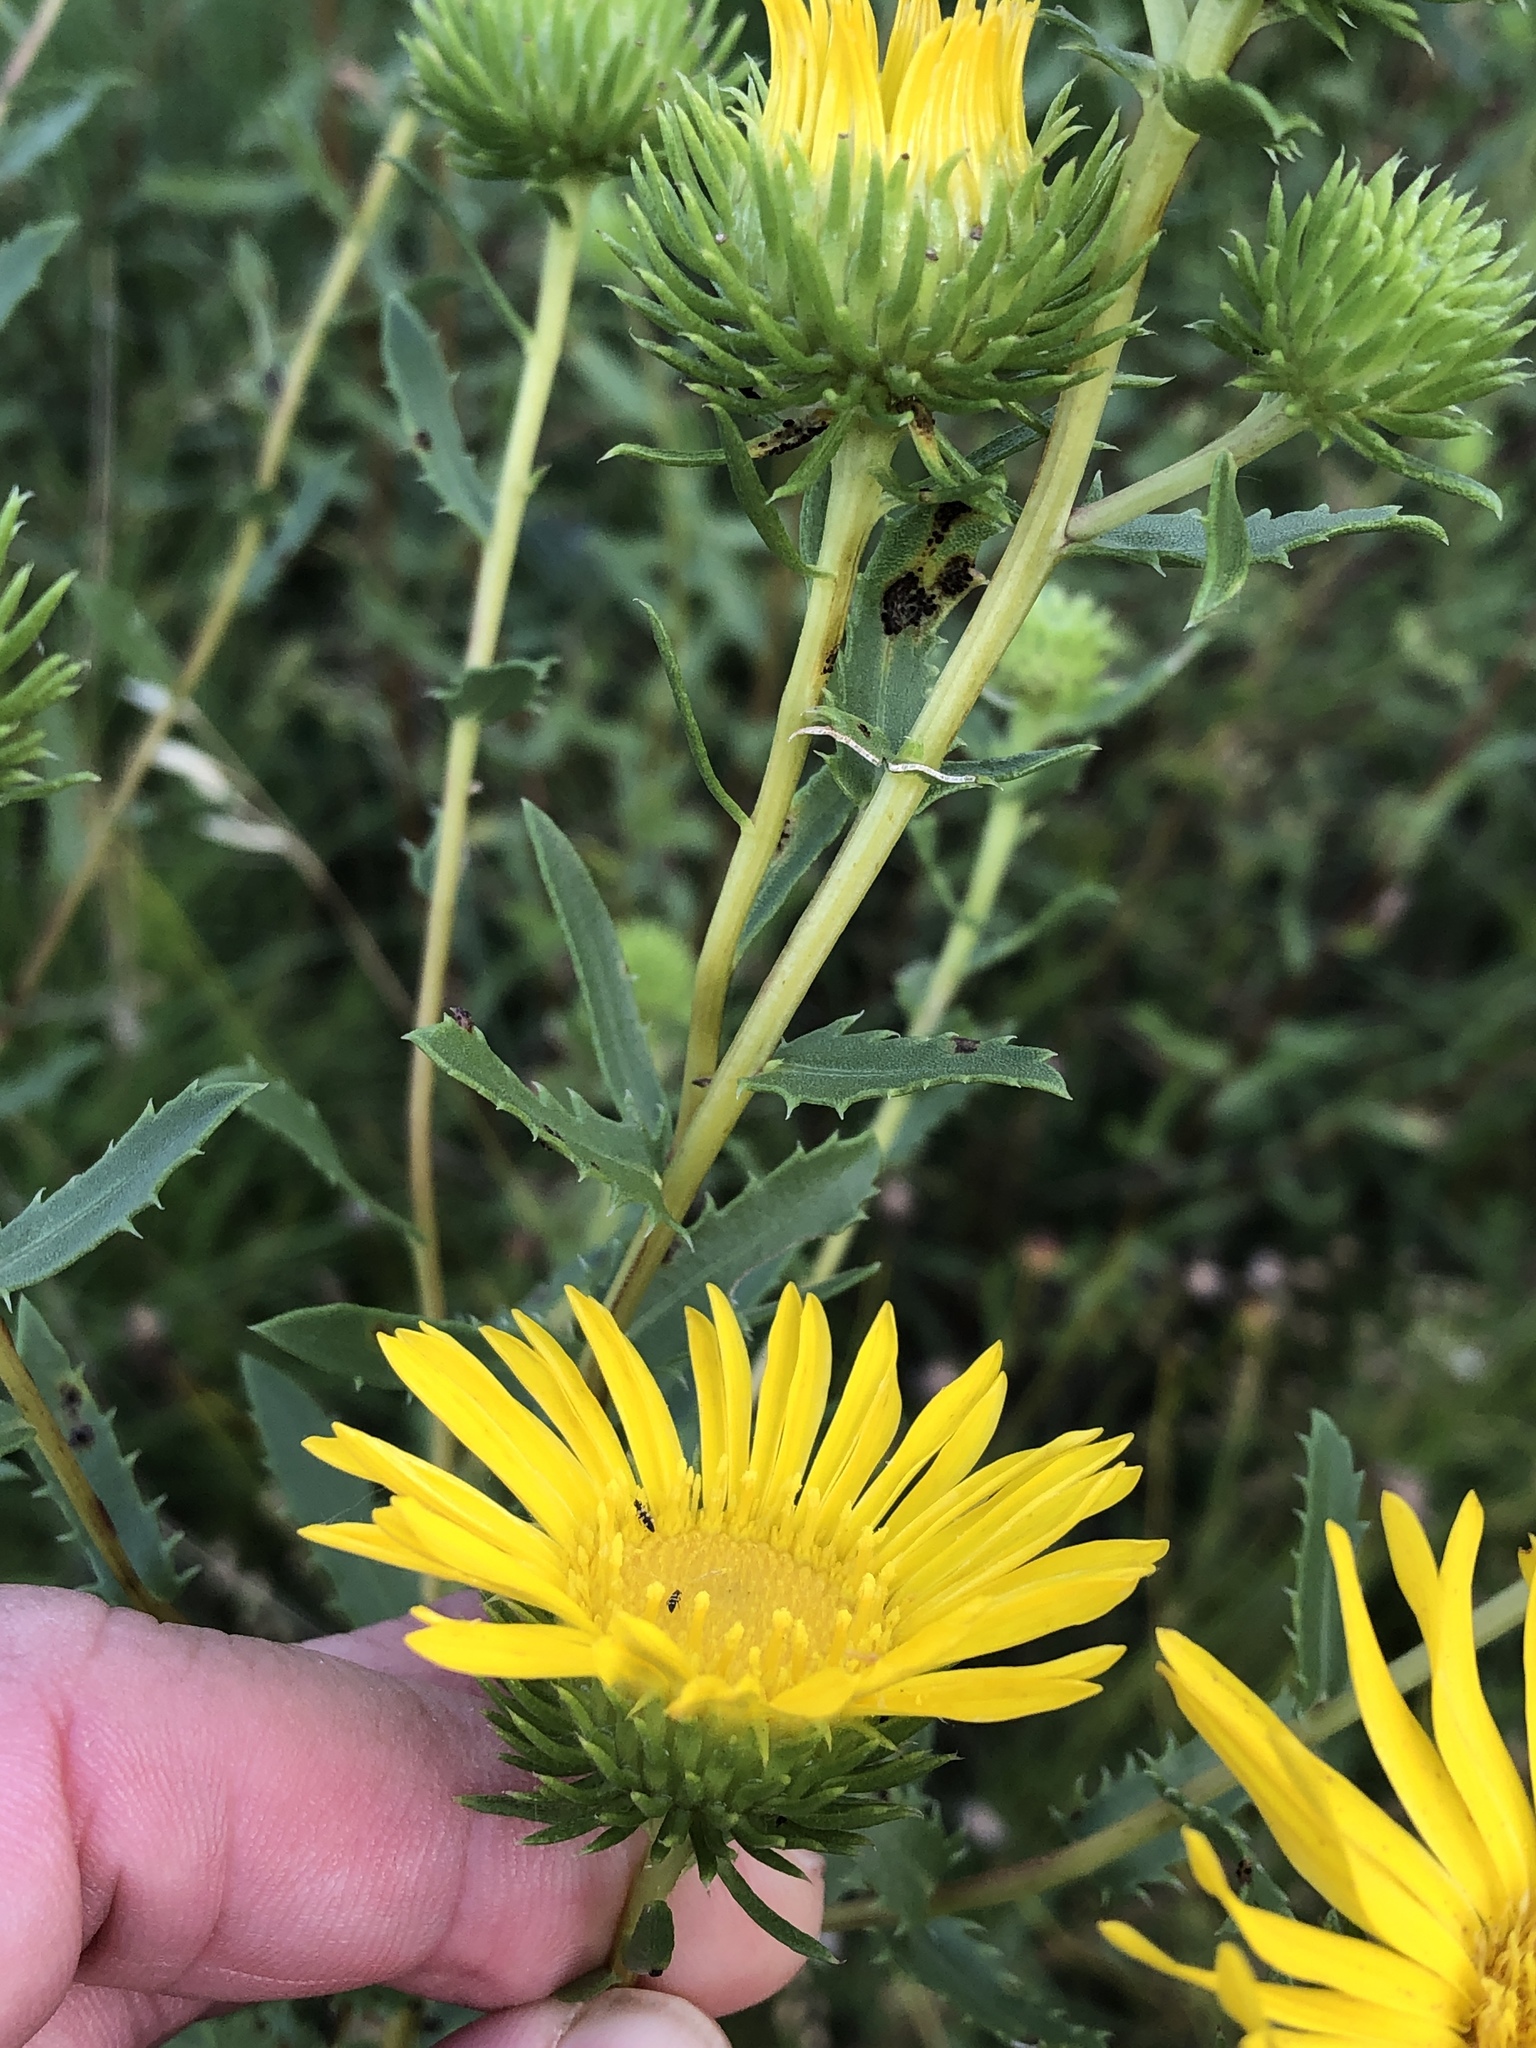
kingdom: Plantae
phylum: Tracheophyta
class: Magnoliopsida
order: Asterales
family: Asteraceae
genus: Grindelia
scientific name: Grindelia lanceolata
